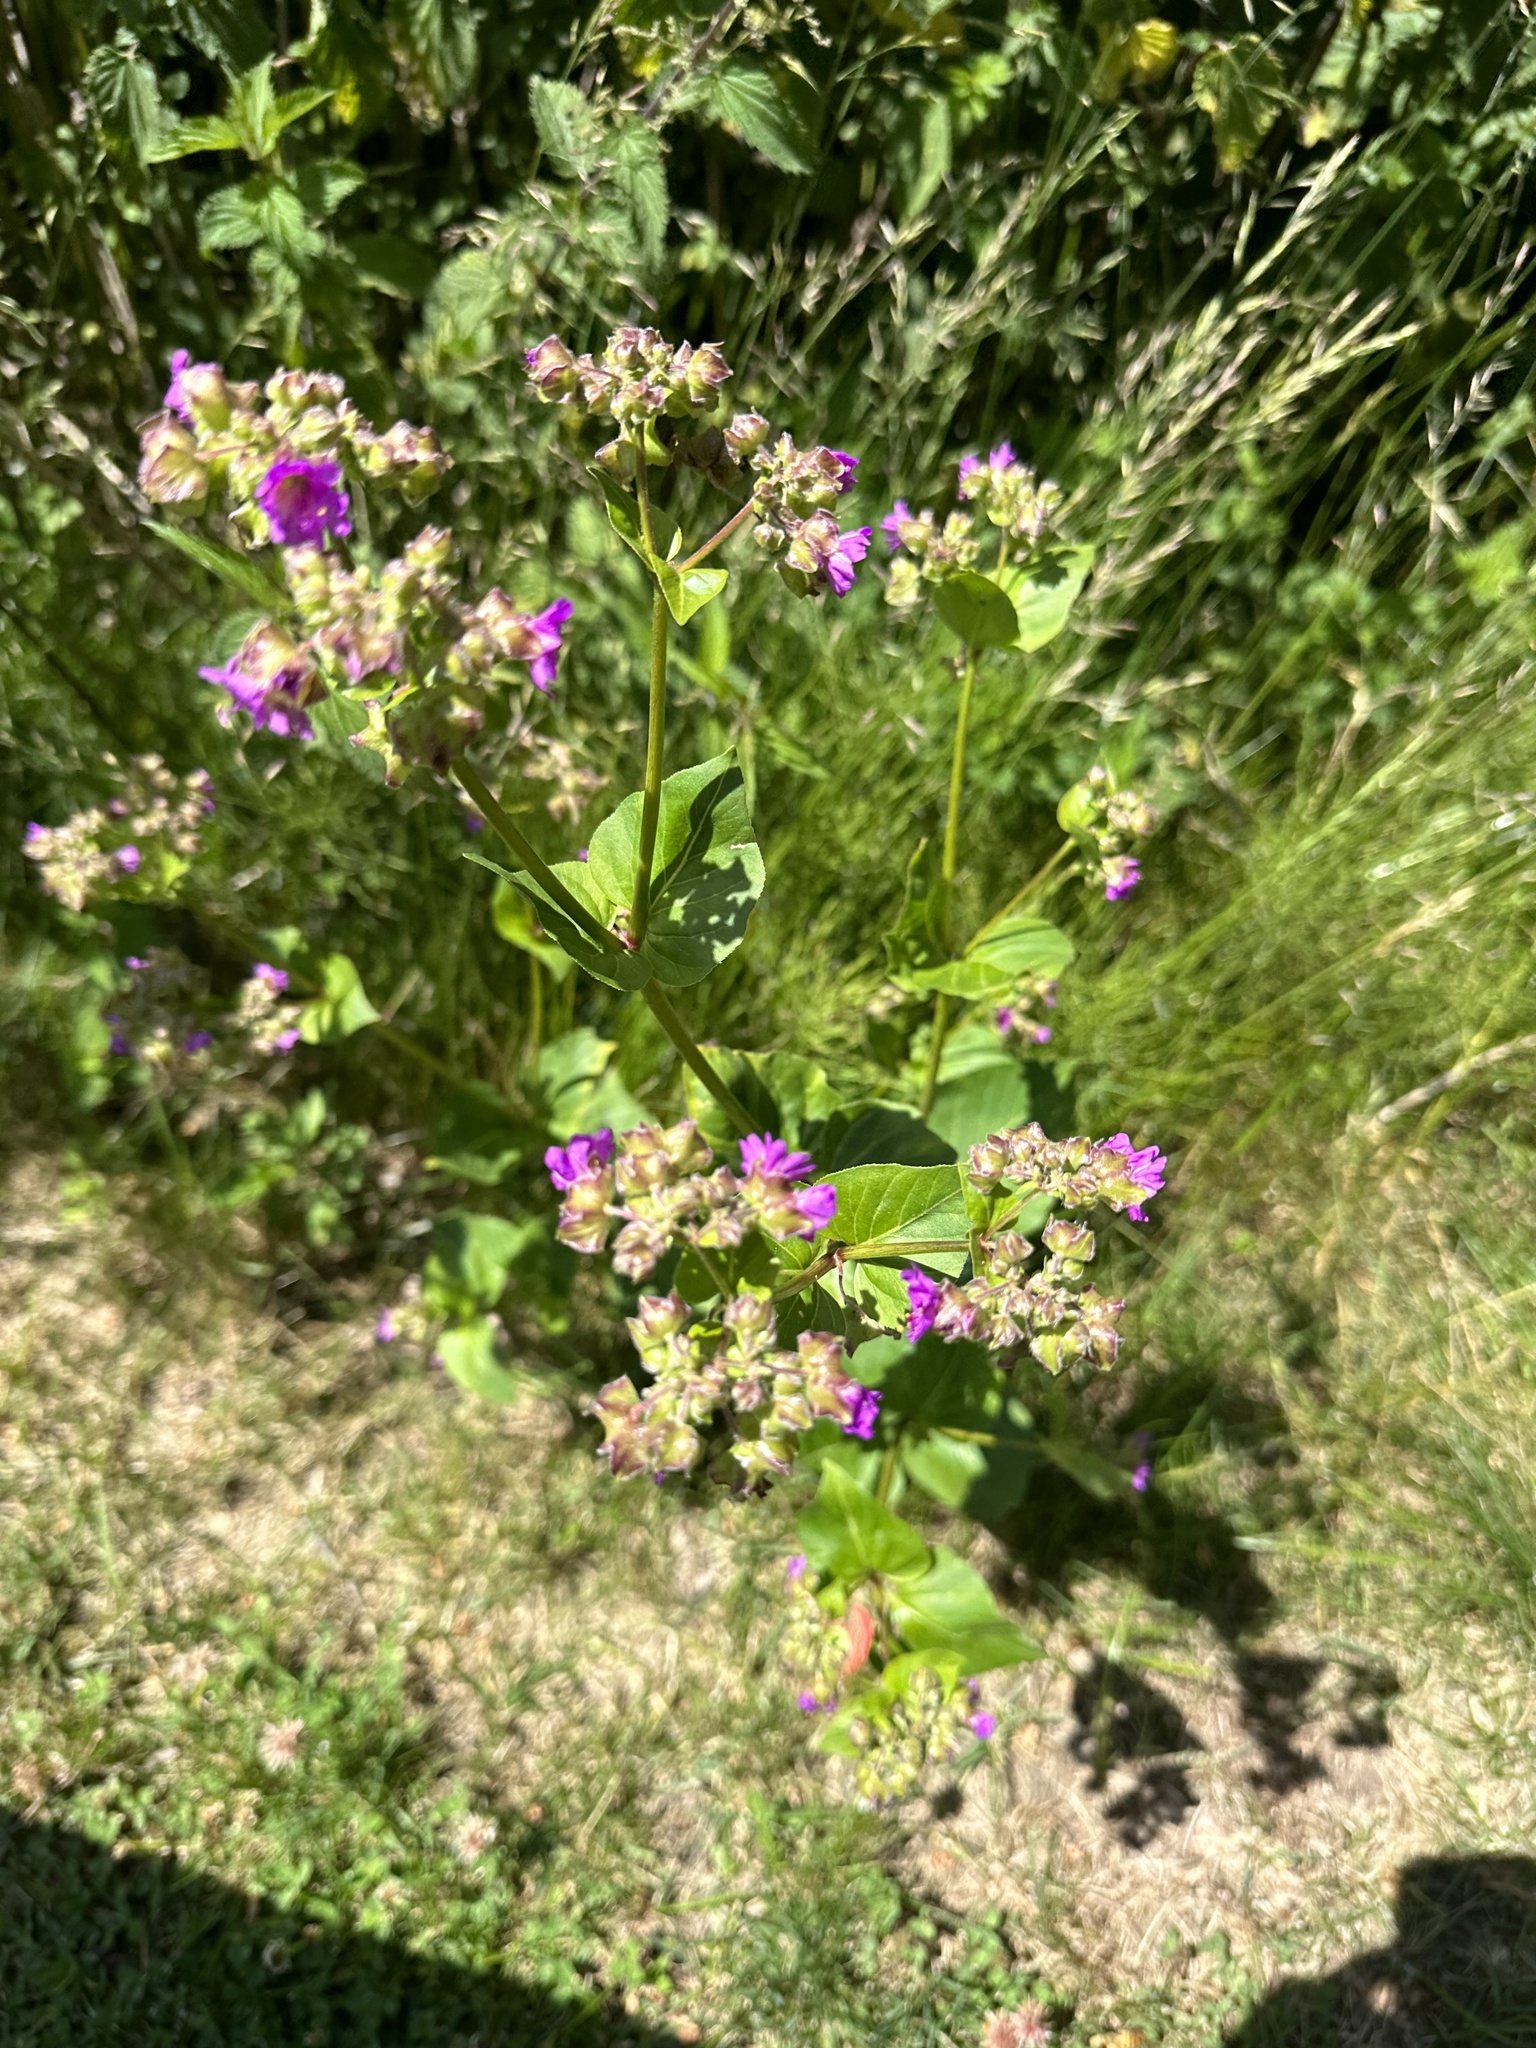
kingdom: Plantae
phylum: Tracheophyta
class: Magnoliopsida
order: Caryophyllales
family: Nyctaginaceae
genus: Mirabilis
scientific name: Mirabilis nyctaginea
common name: Umbrella wort
